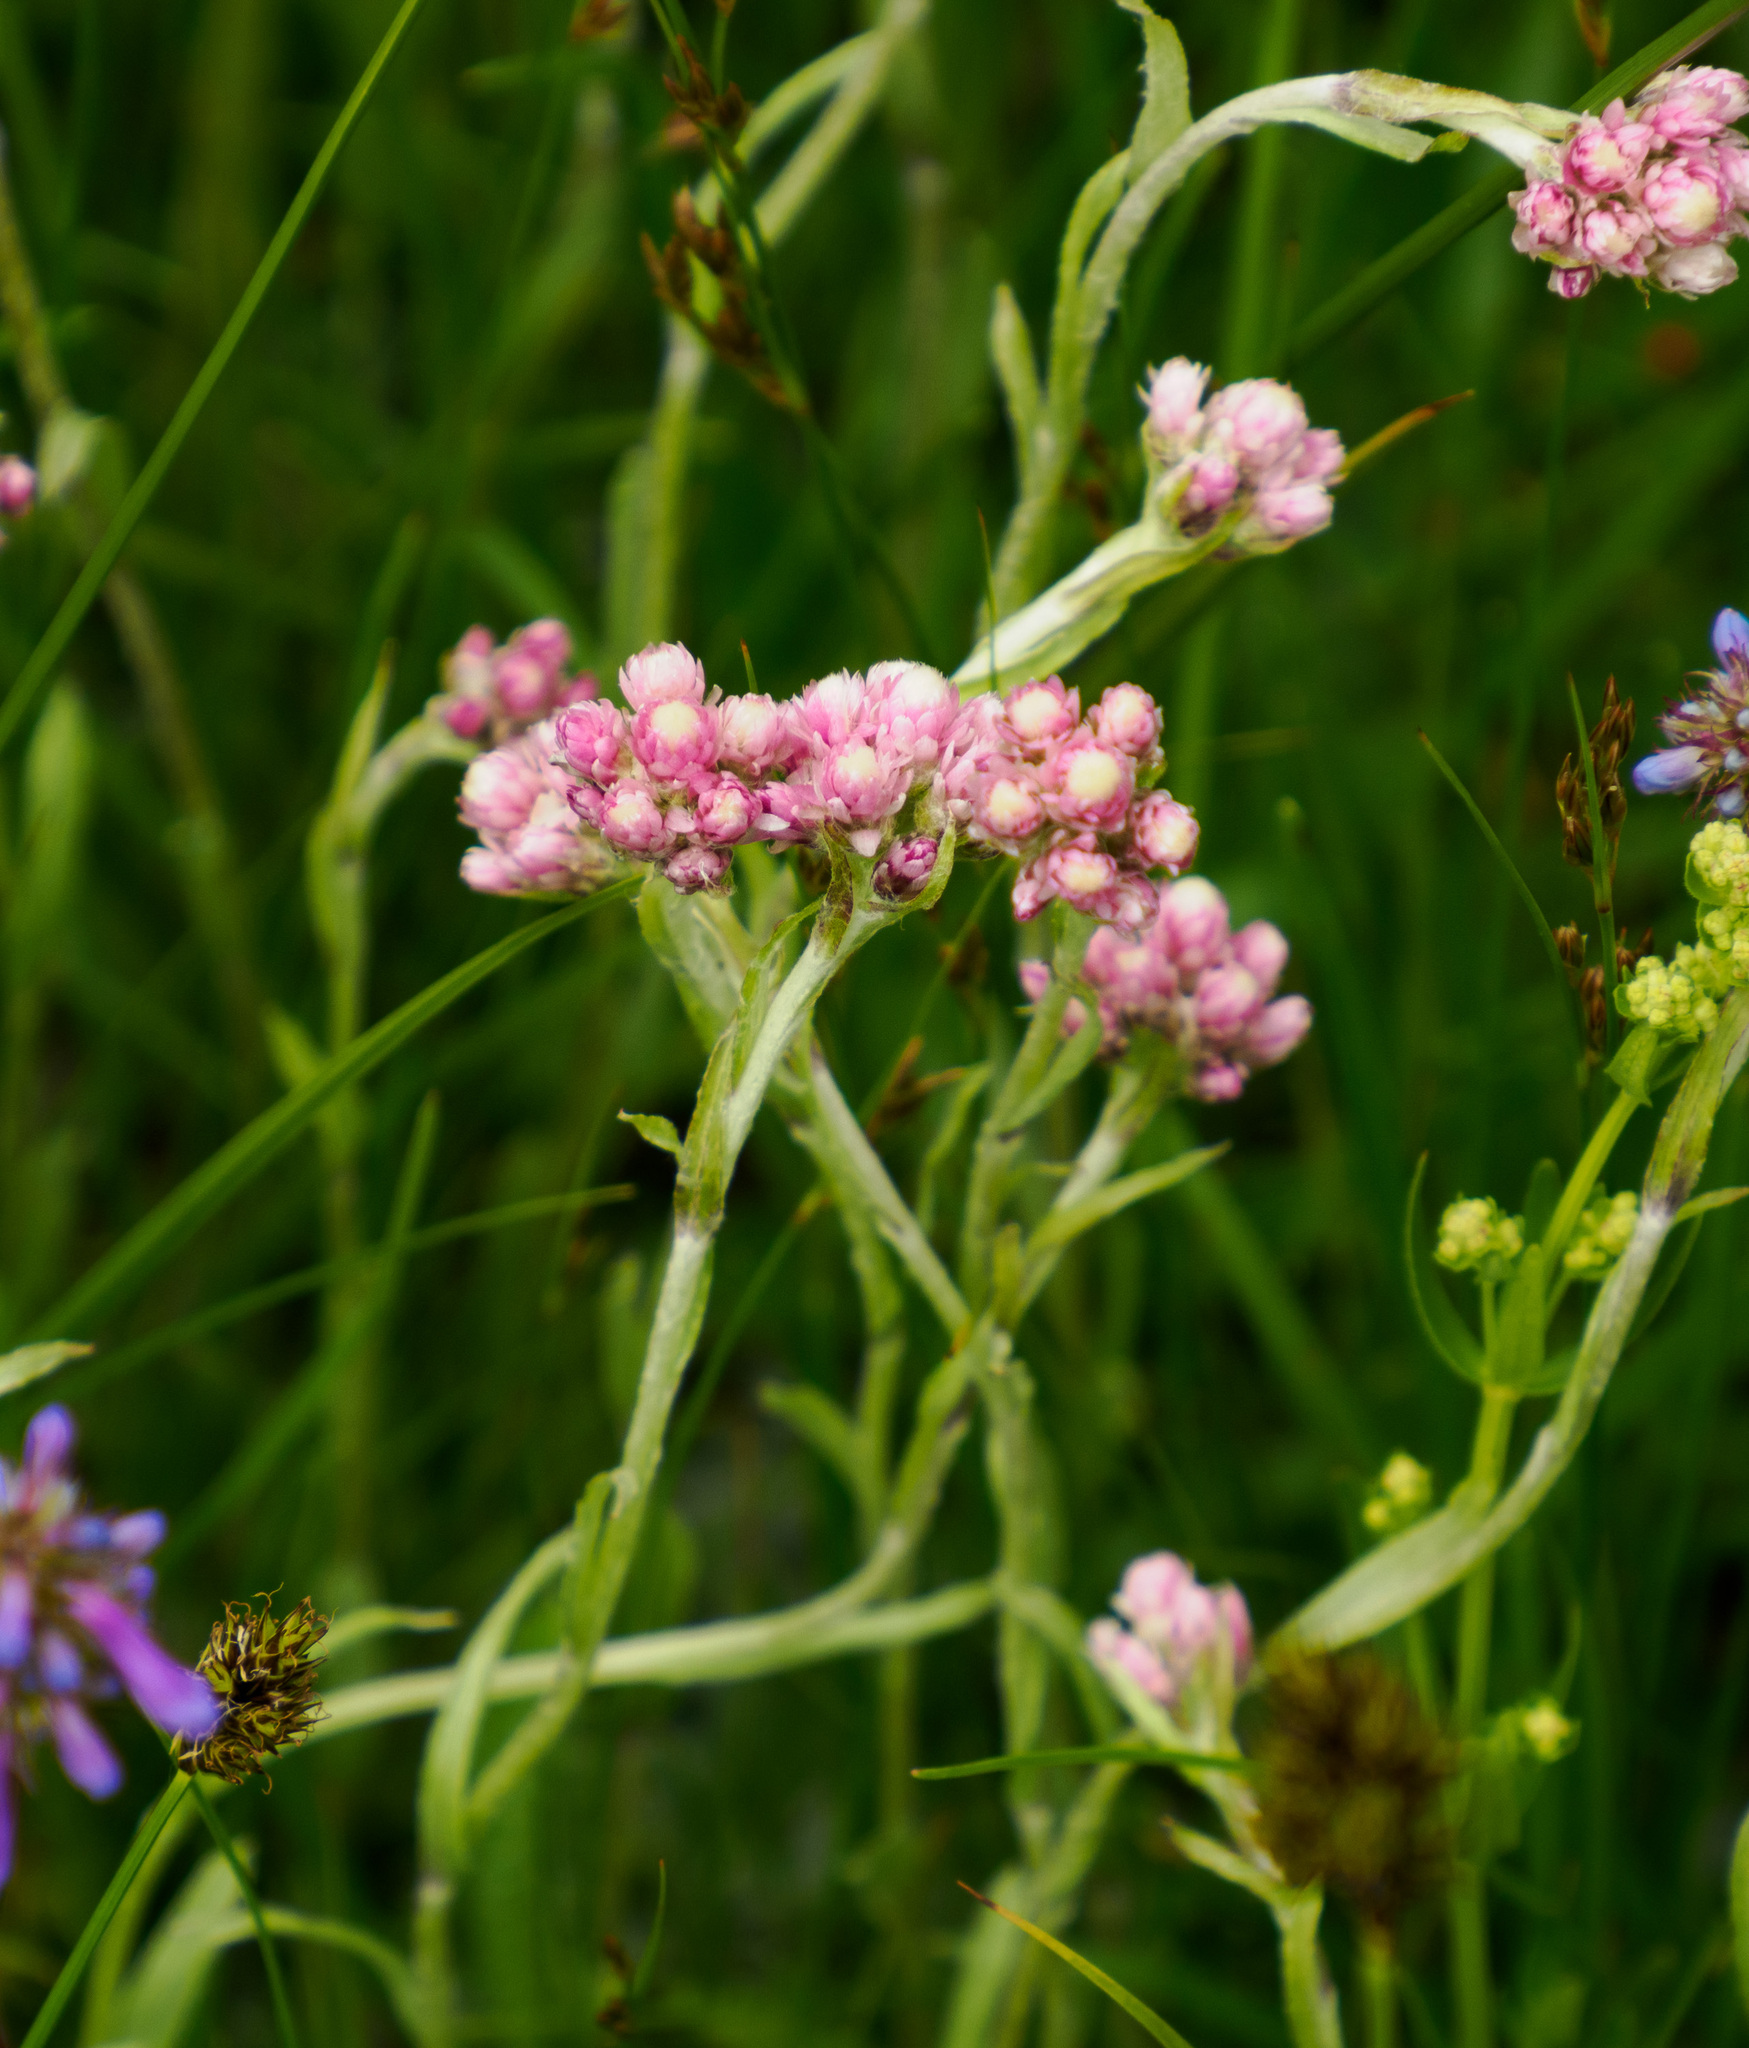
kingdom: Plantae
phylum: Tracheophyta
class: Magnoliopsida
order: Asterales
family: Asteraceae
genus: Antennaria
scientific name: Antennaria rosea
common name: Rosy pussytoes
